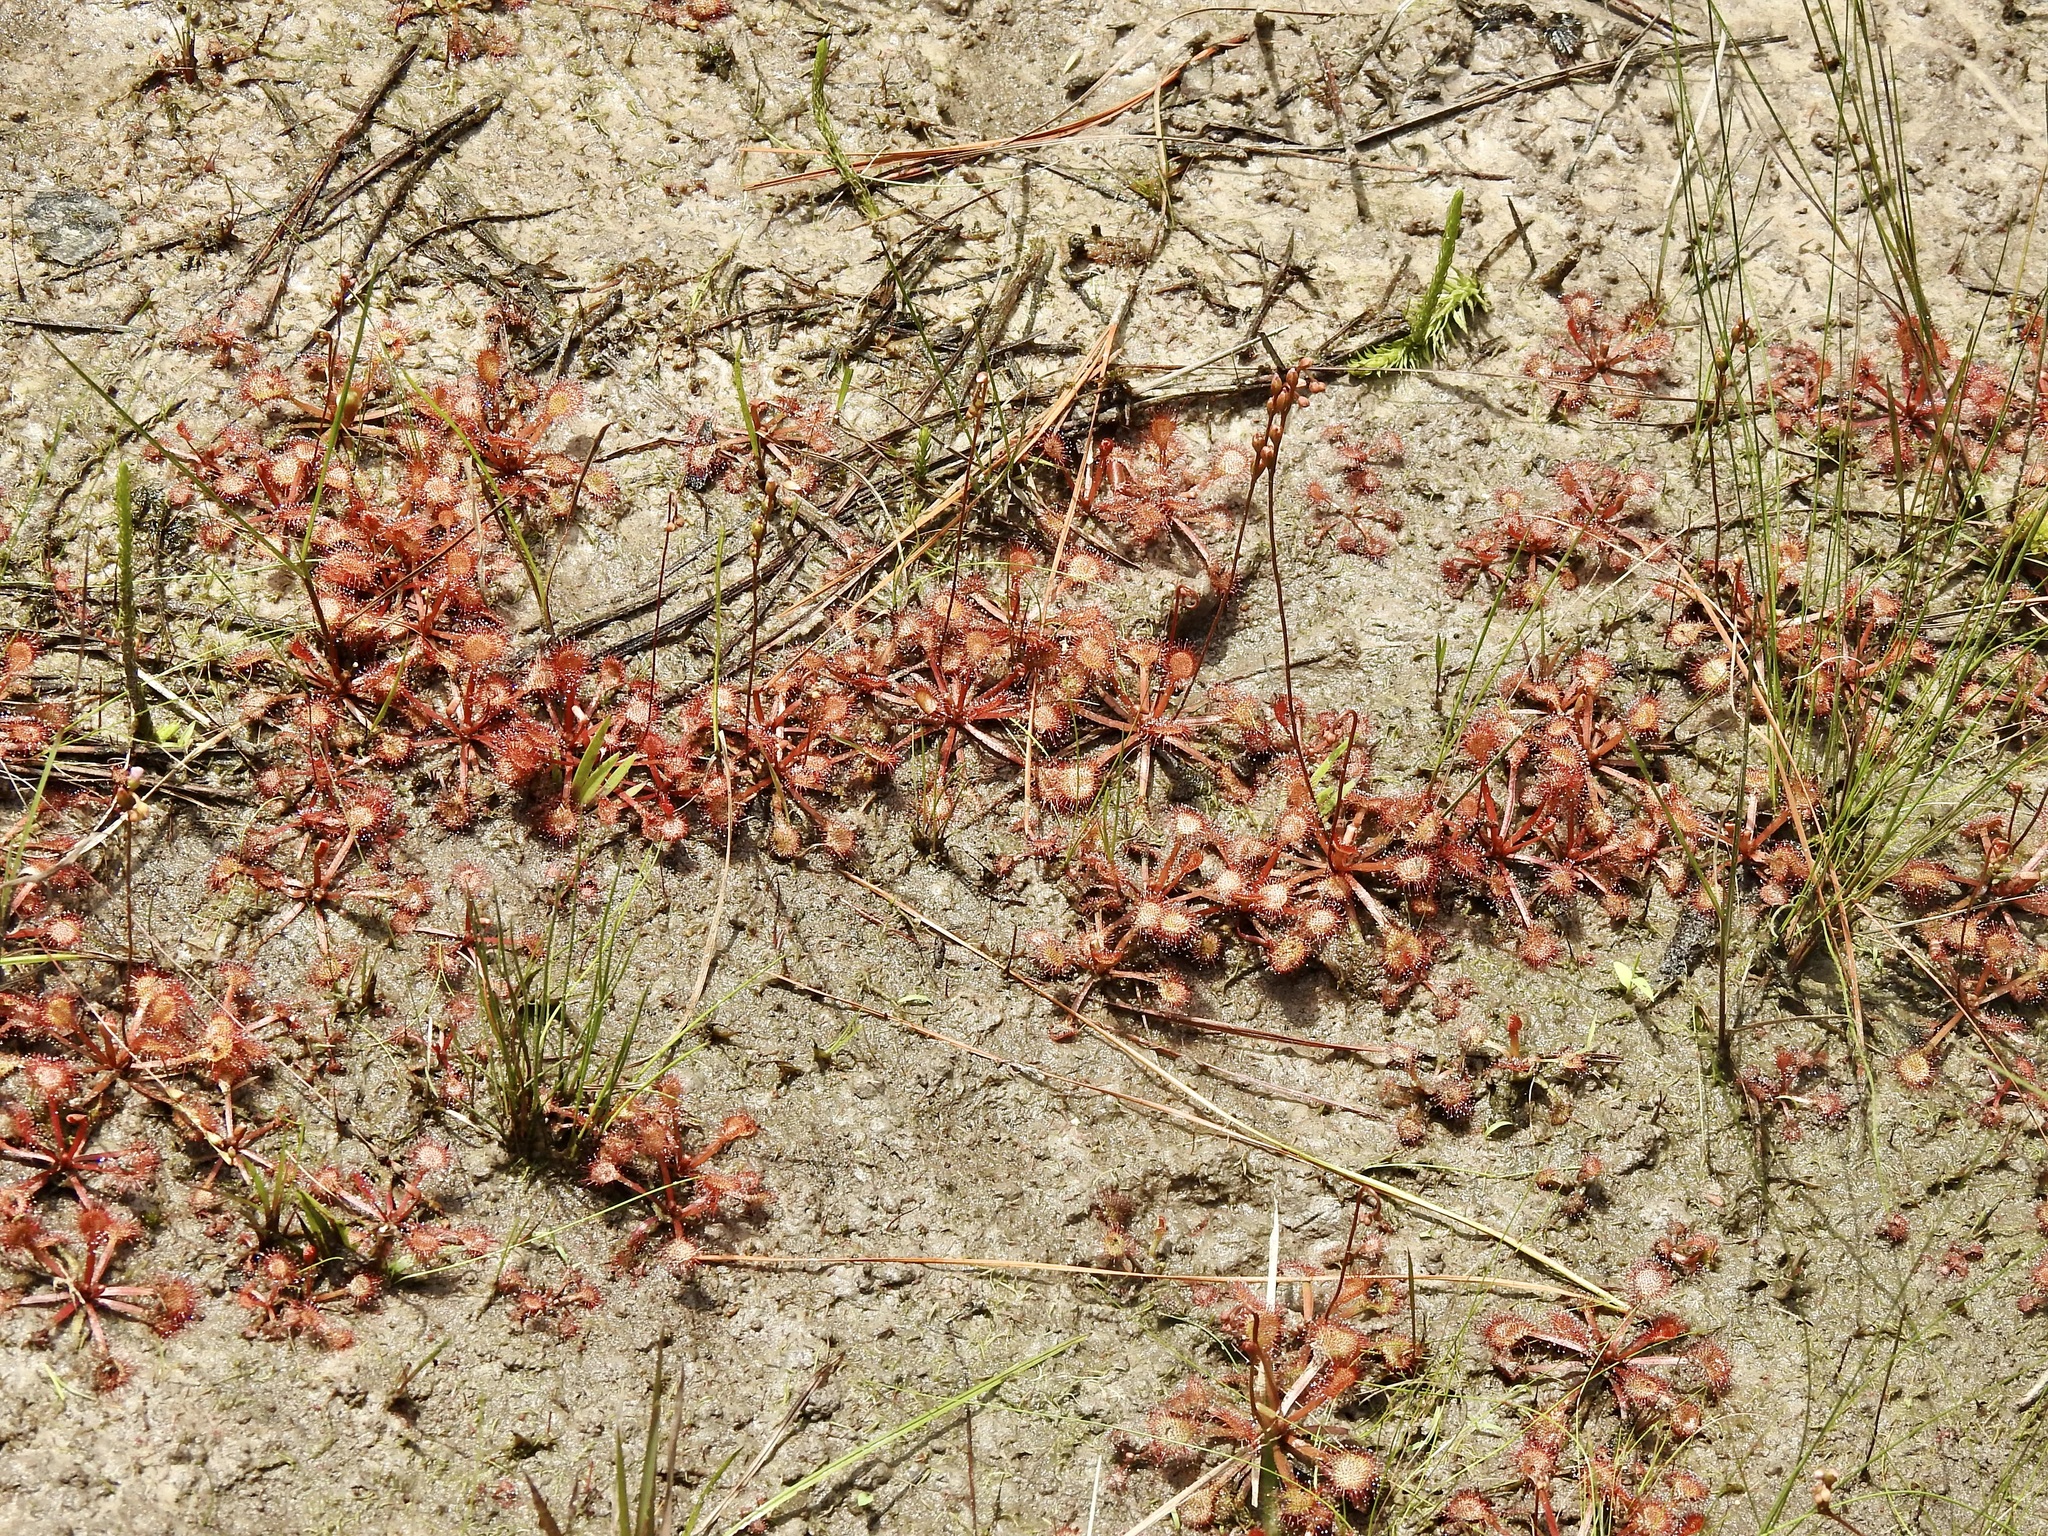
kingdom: Plantae
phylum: Tracheophyta
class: Magnoliopsida
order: Caryophyllales
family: Droseraceae
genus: Drosera
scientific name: Drosera capillaris
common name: Pink sundew
